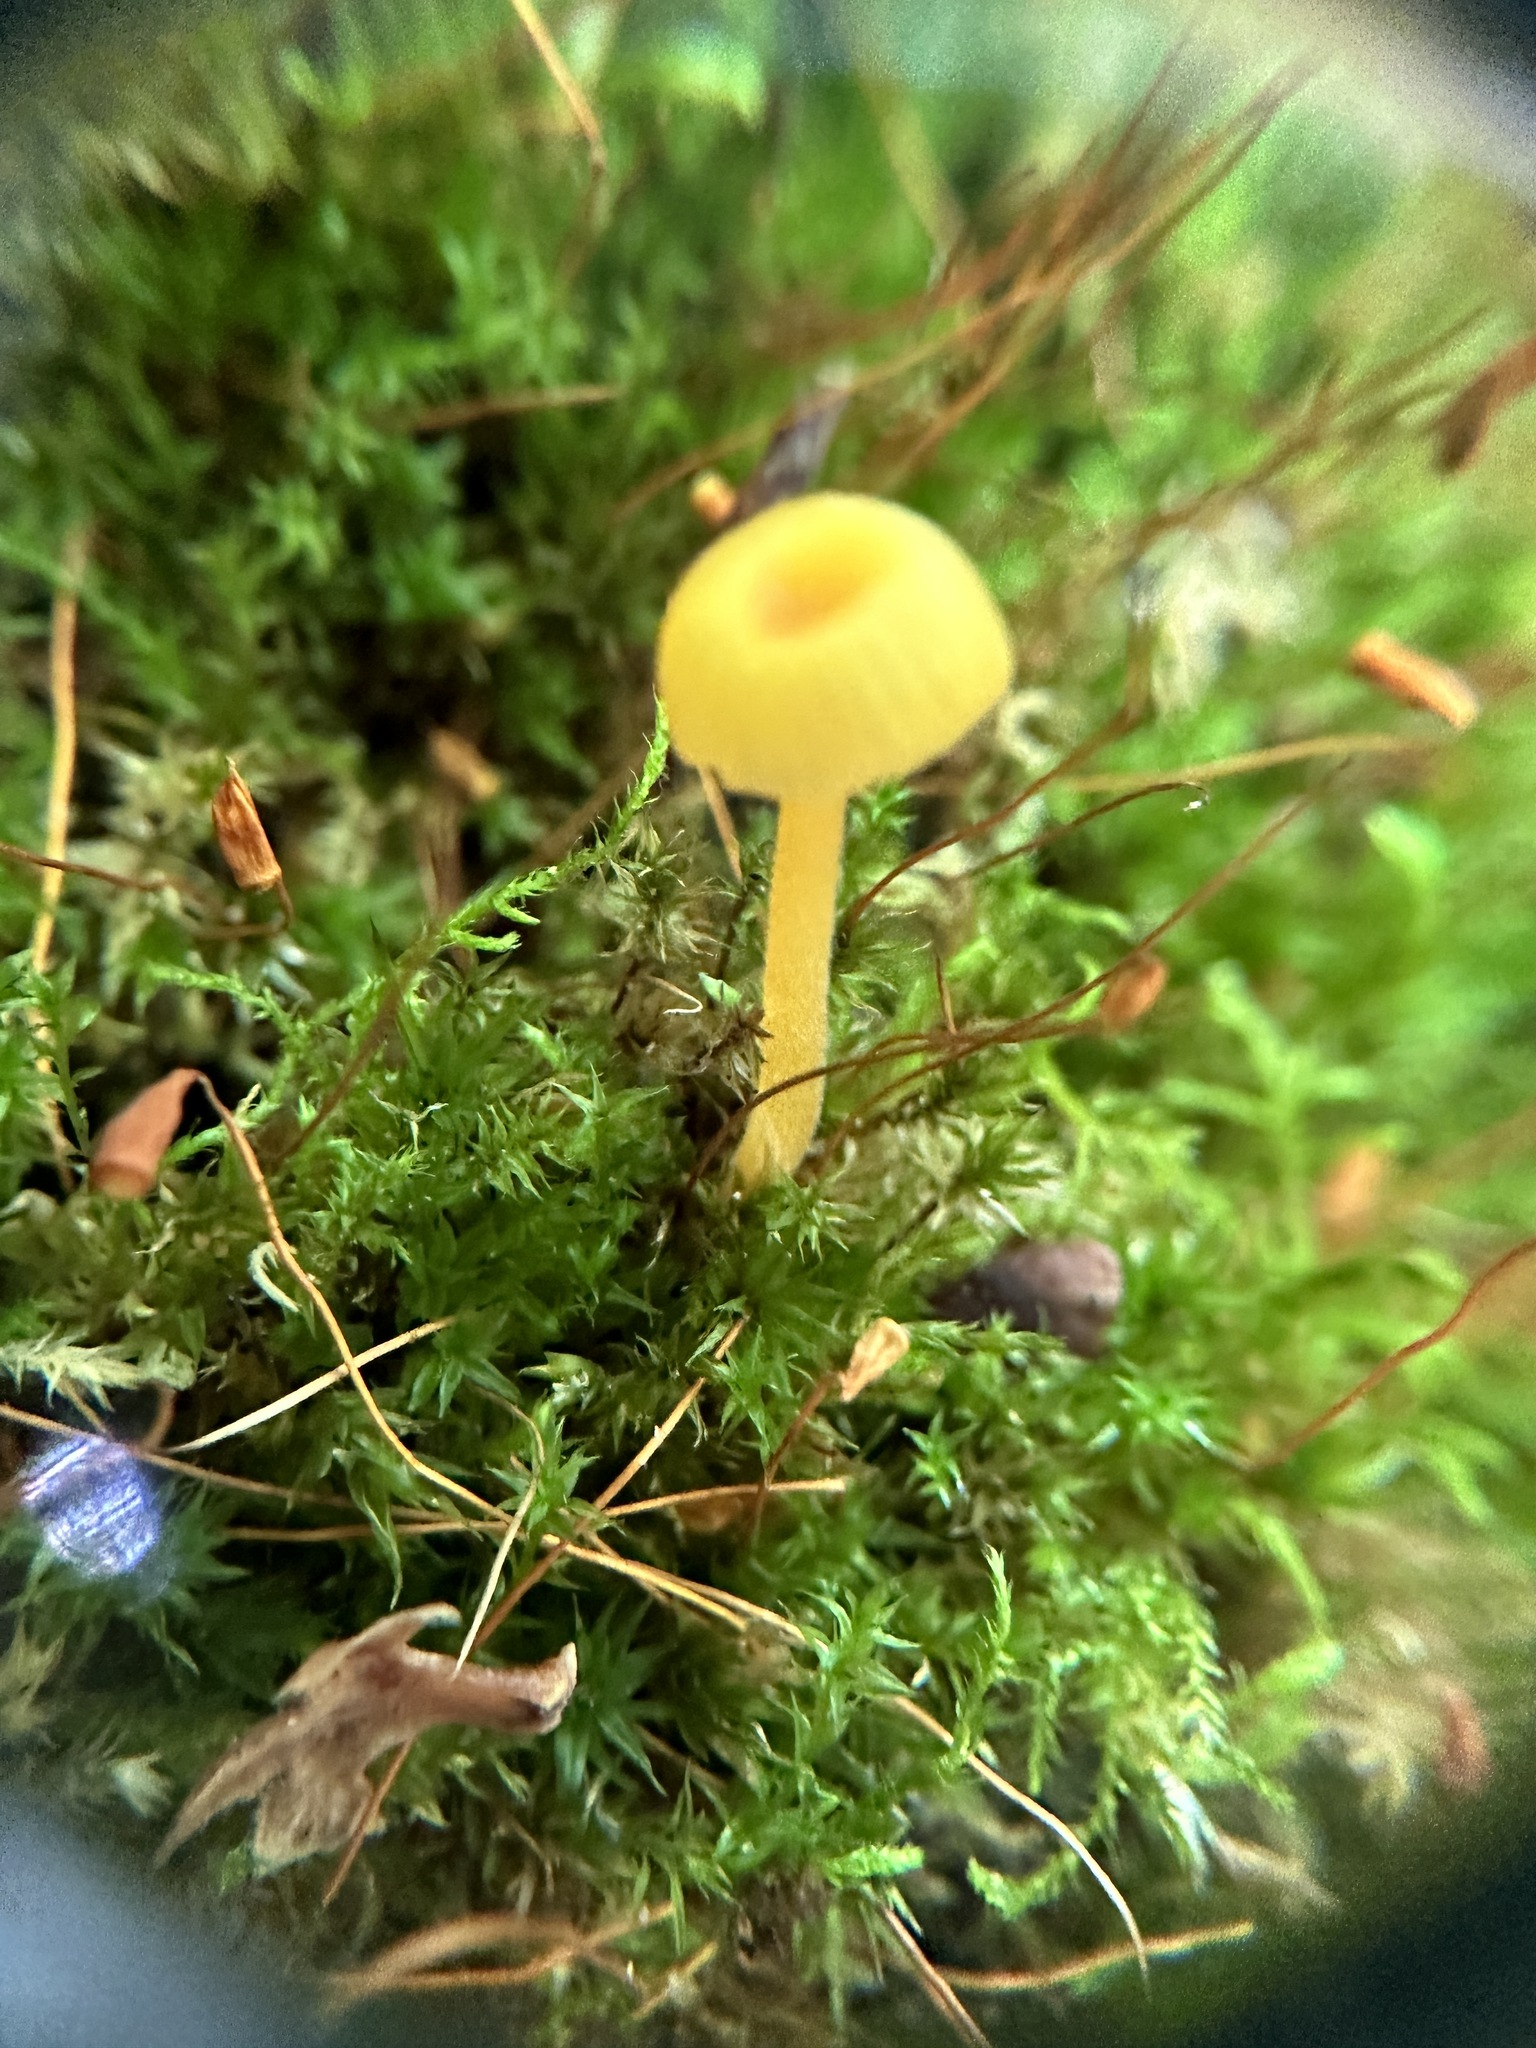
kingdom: Fungi
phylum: Basidiomycota
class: Agaricomycetes
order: Hymenochaetales
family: Rickenellaceae
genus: Rickenella
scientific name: Rickenella fibula
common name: Orange mosscap
